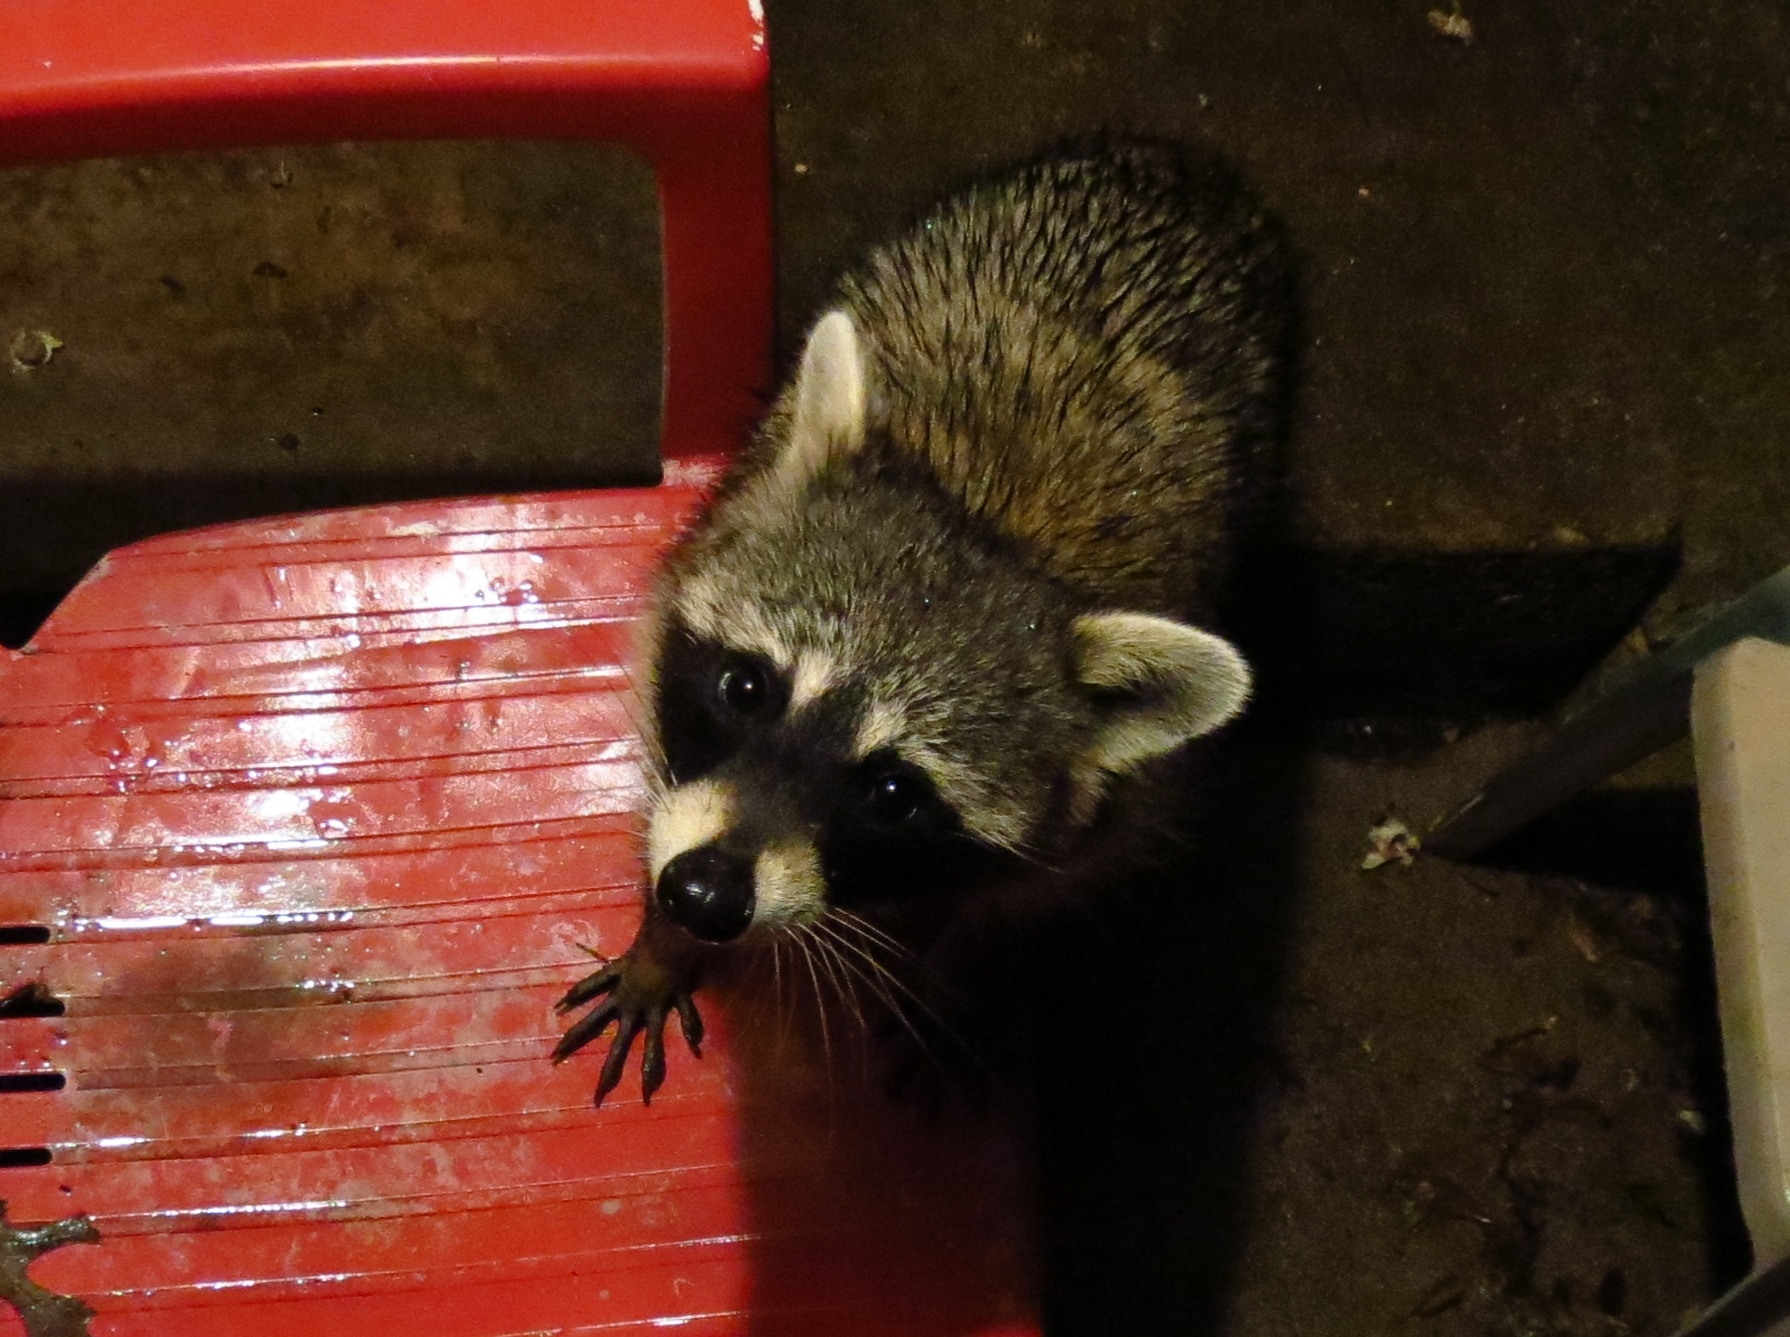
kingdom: Animalia
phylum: Chordata
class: Mammalia
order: Carnivora
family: Procyonidae
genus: Procyon
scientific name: Procyon lotor
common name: Raccoon
